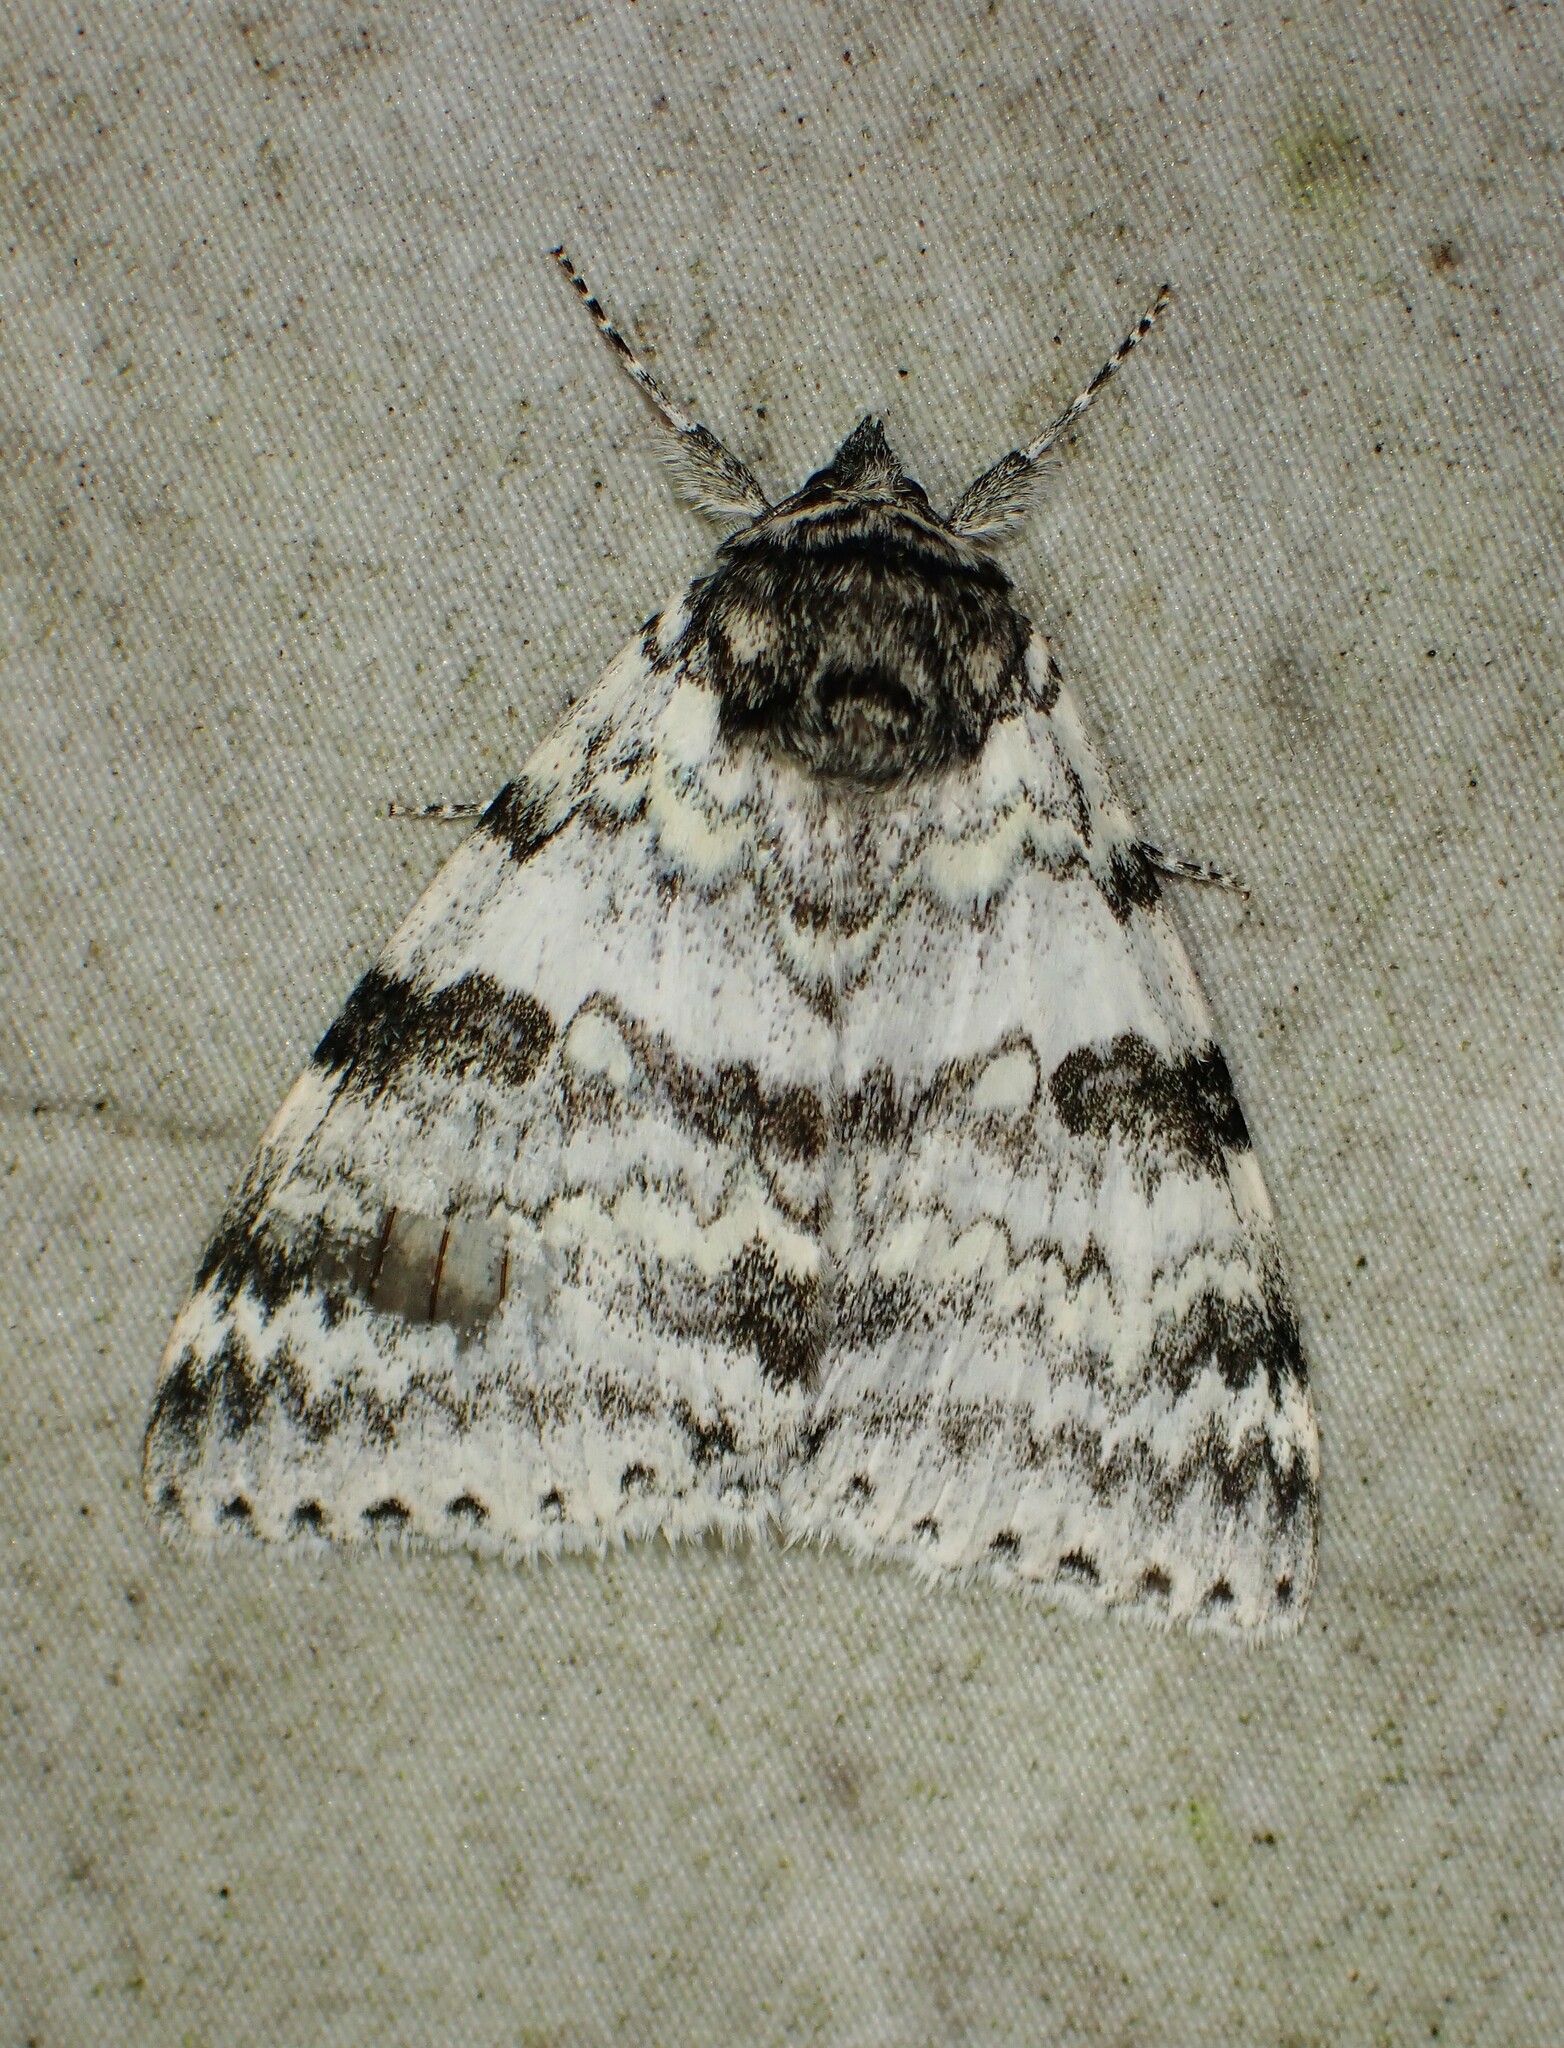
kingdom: Animalia
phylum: Arthropoda
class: Insecta
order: Lepidoptera
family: Erebidae
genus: Catocala
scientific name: Catocala relicta
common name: White underwing
